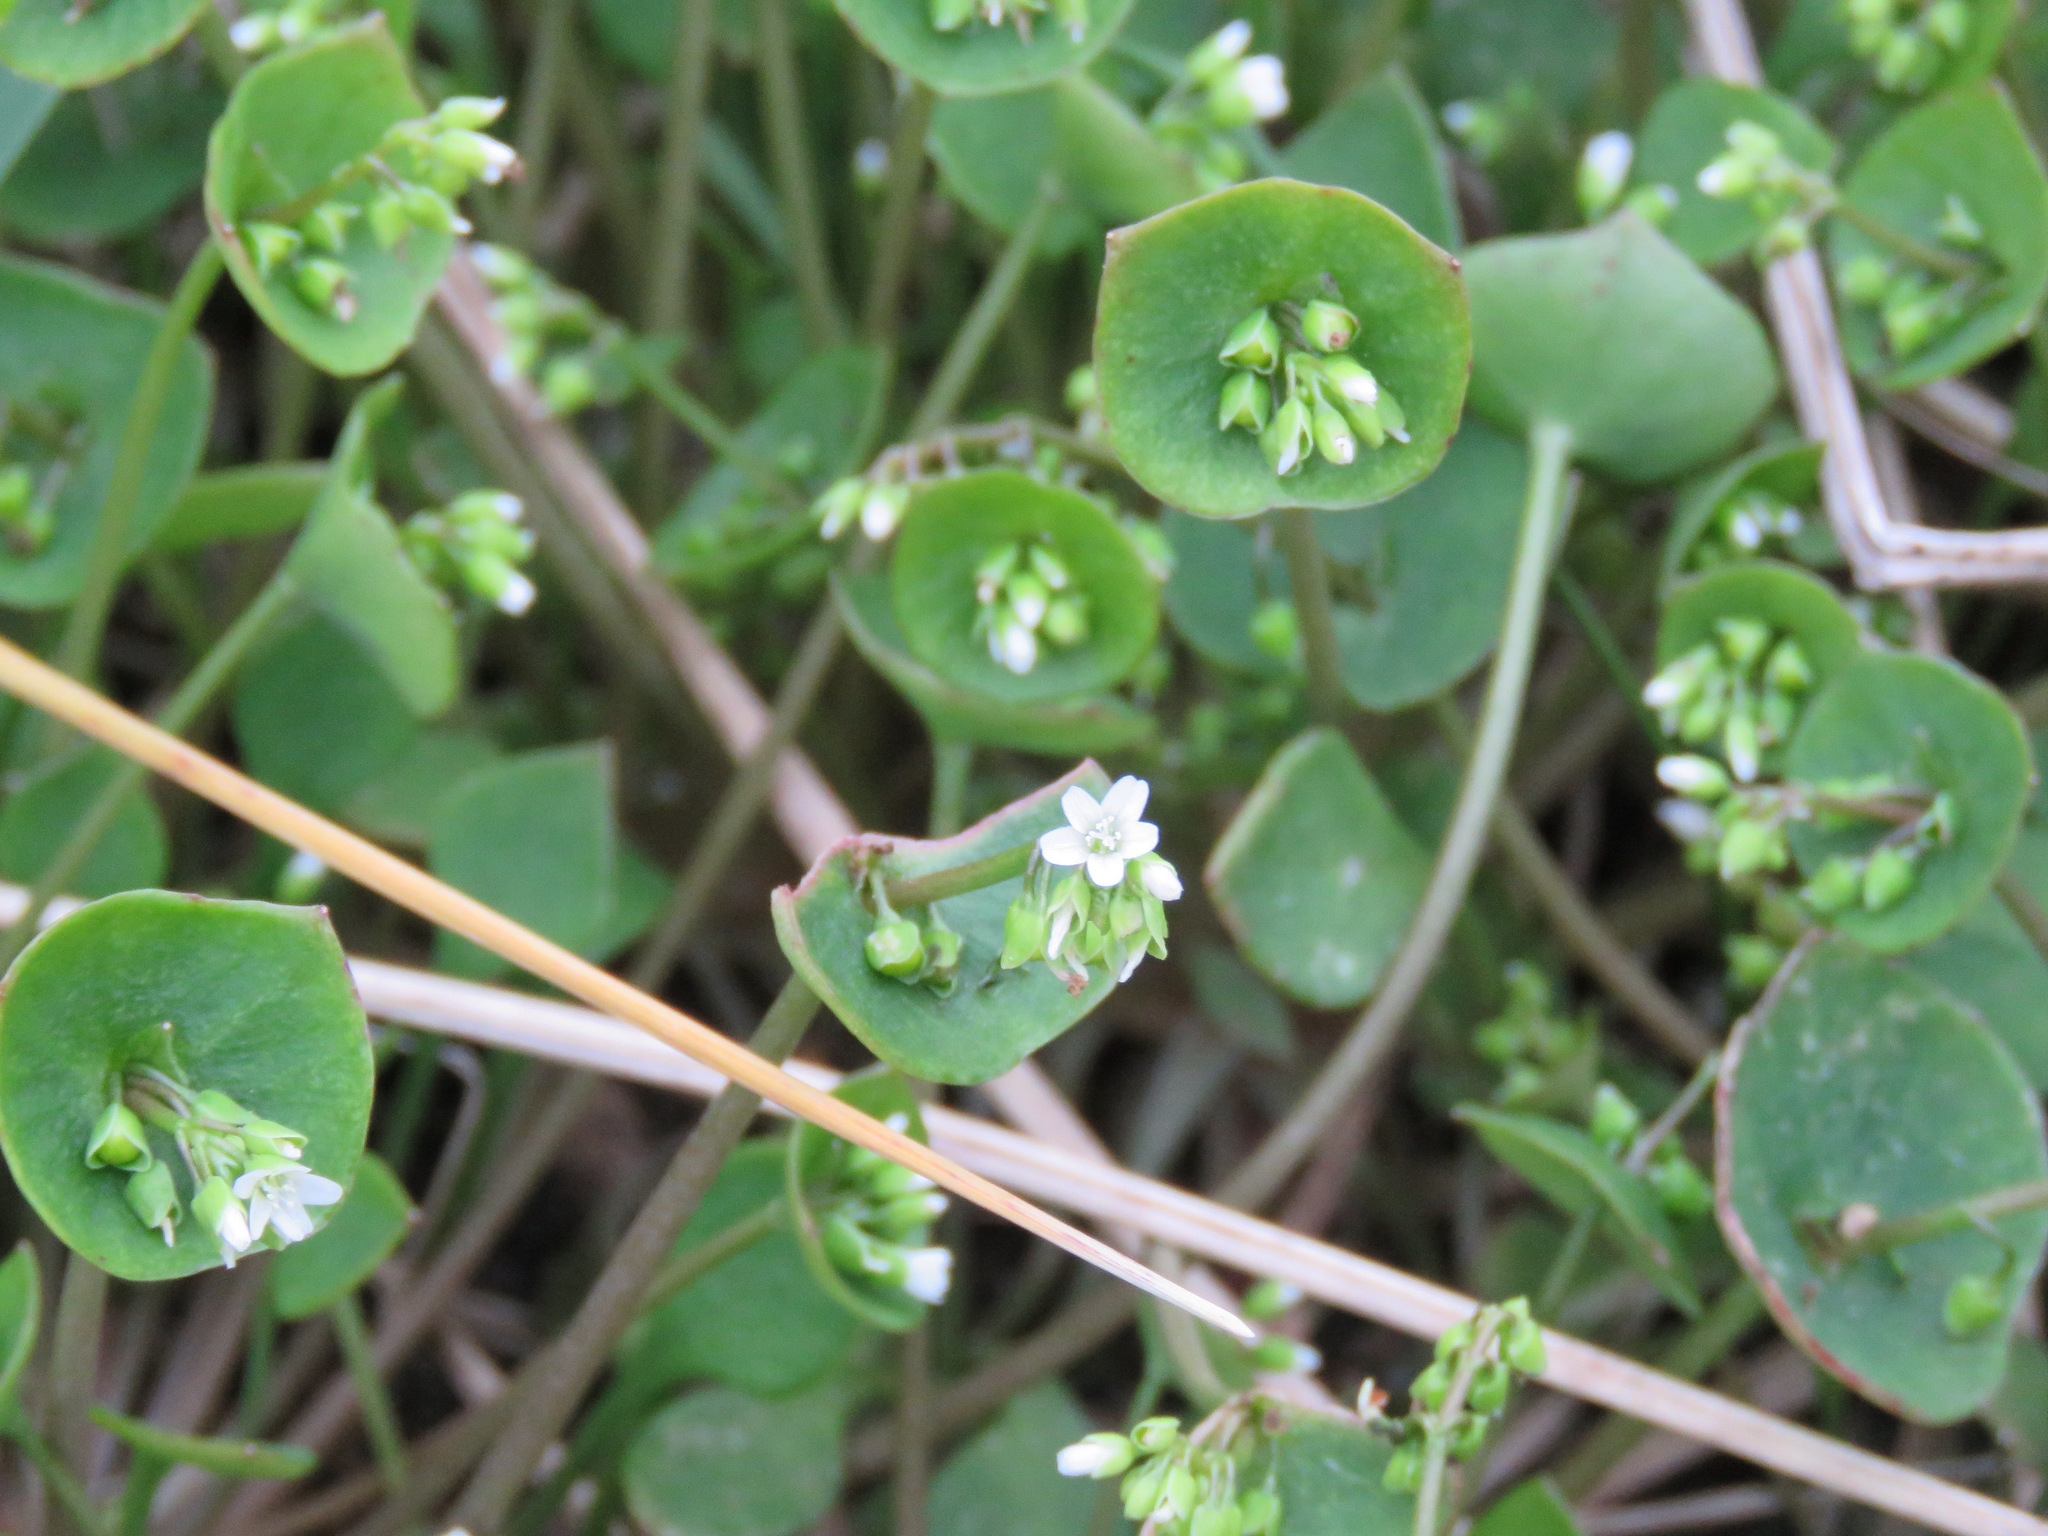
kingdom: Plantae
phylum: Tracheophyta
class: Magnoliopsida
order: Caryophyllales
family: Montiaceae
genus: Claytonia
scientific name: Claytonia perfoliata
